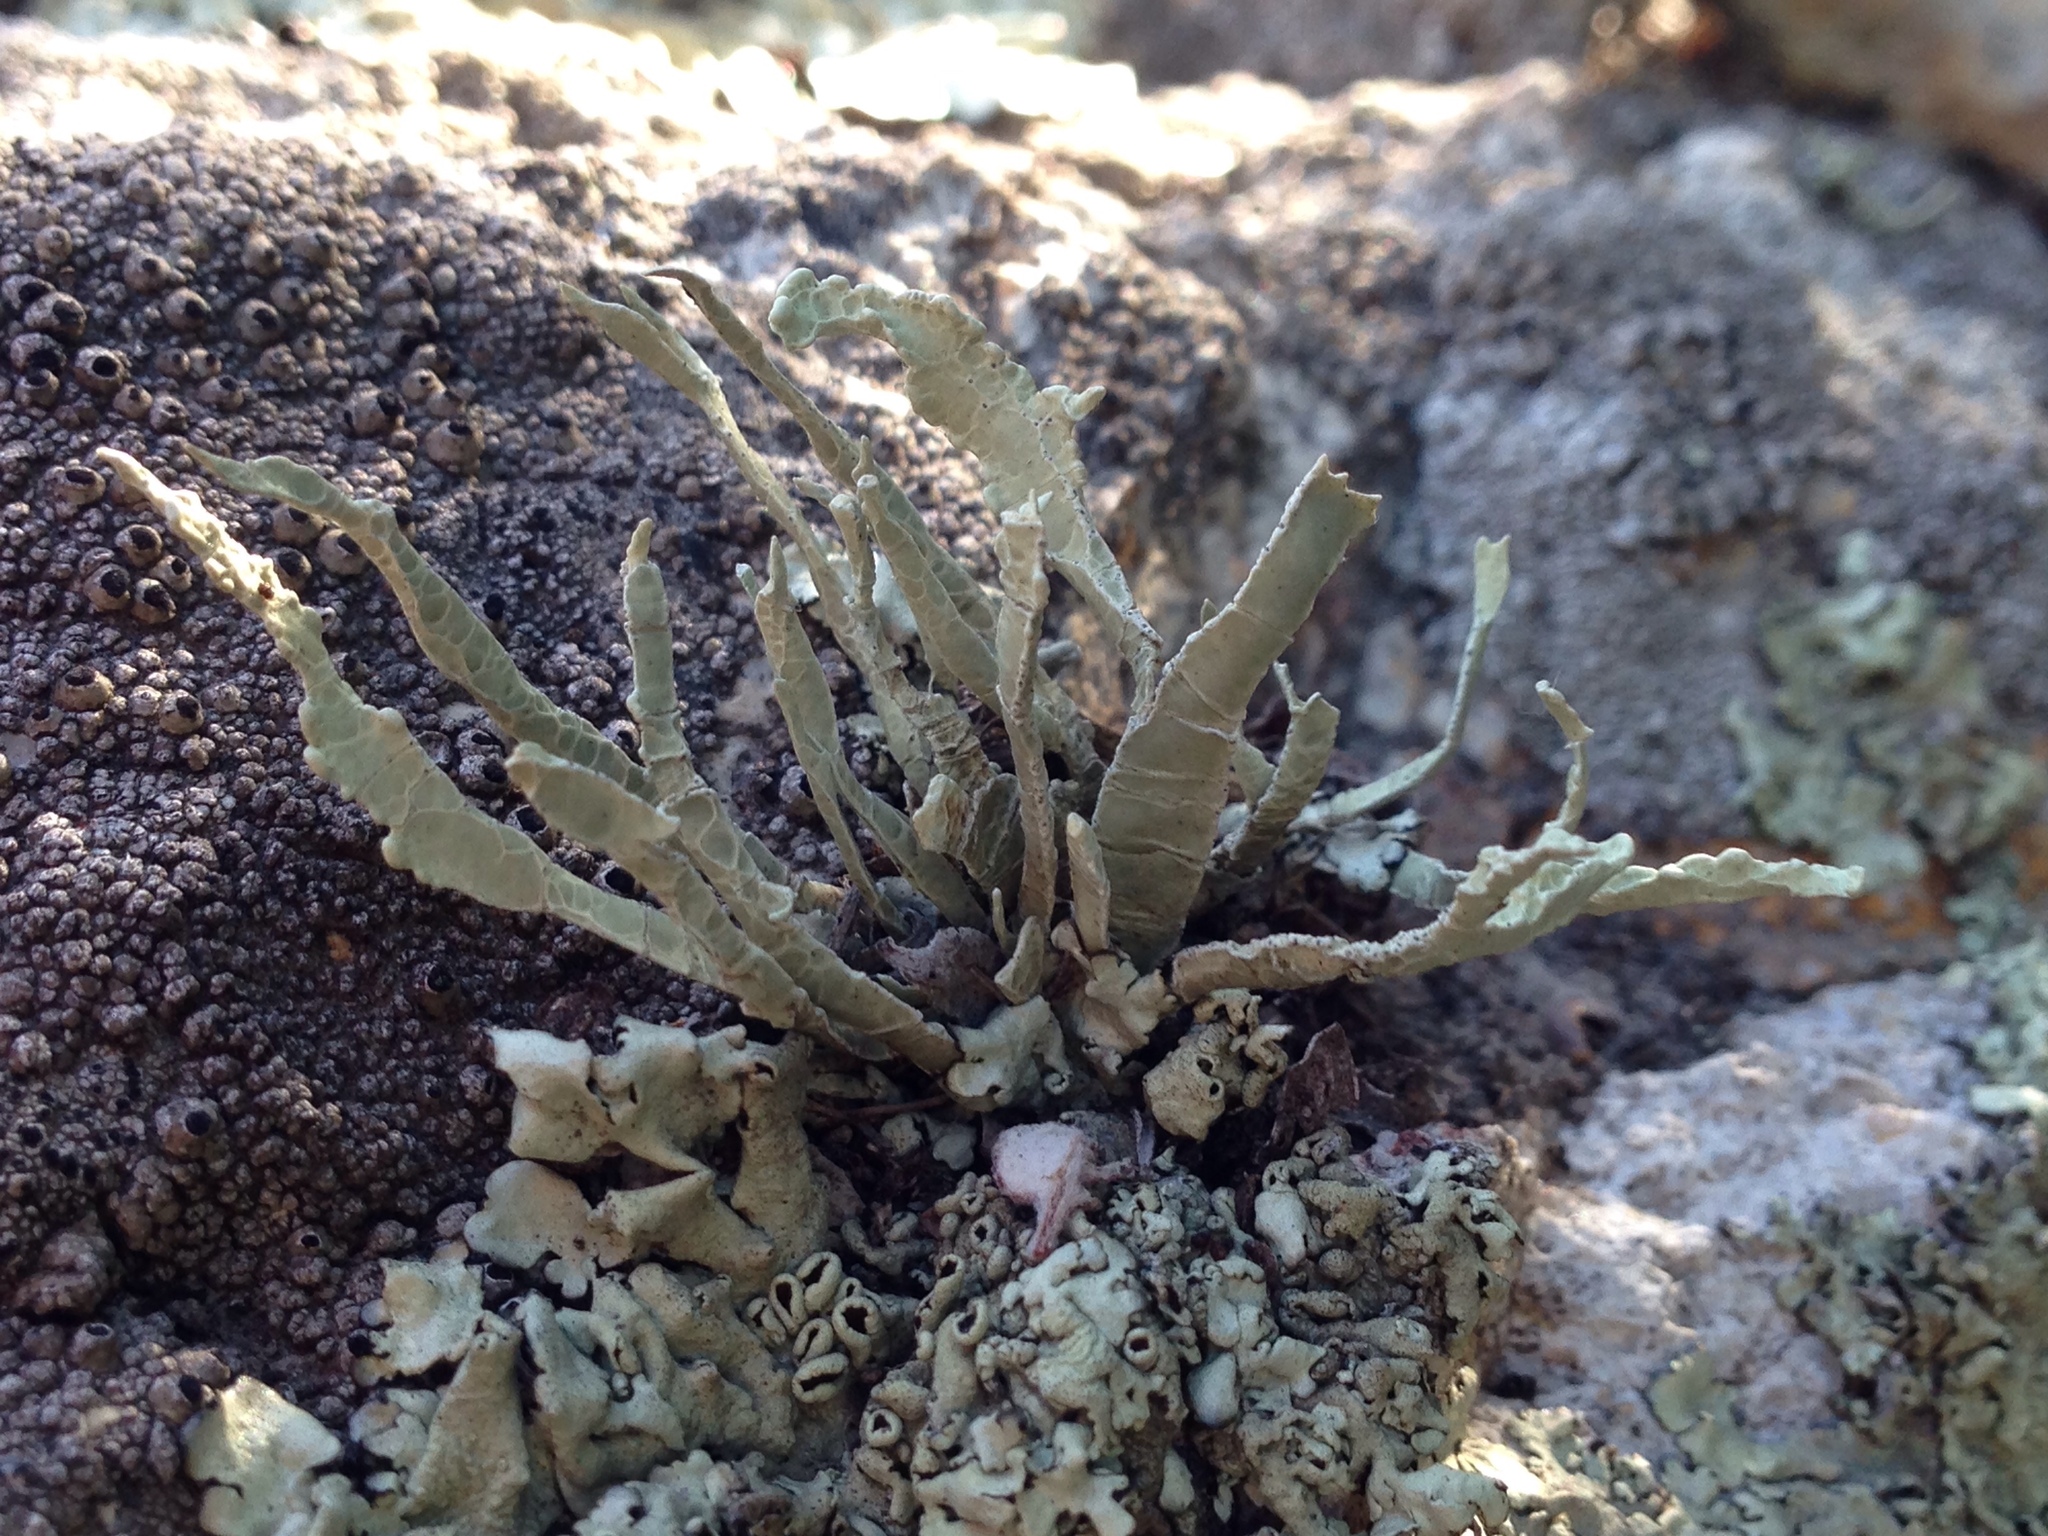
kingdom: Fungi
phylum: Ascomycota
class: Lecanoromycetes
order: Lecanorales
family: Ramalinaceae
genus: Niebla
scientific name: Niebla homalea
